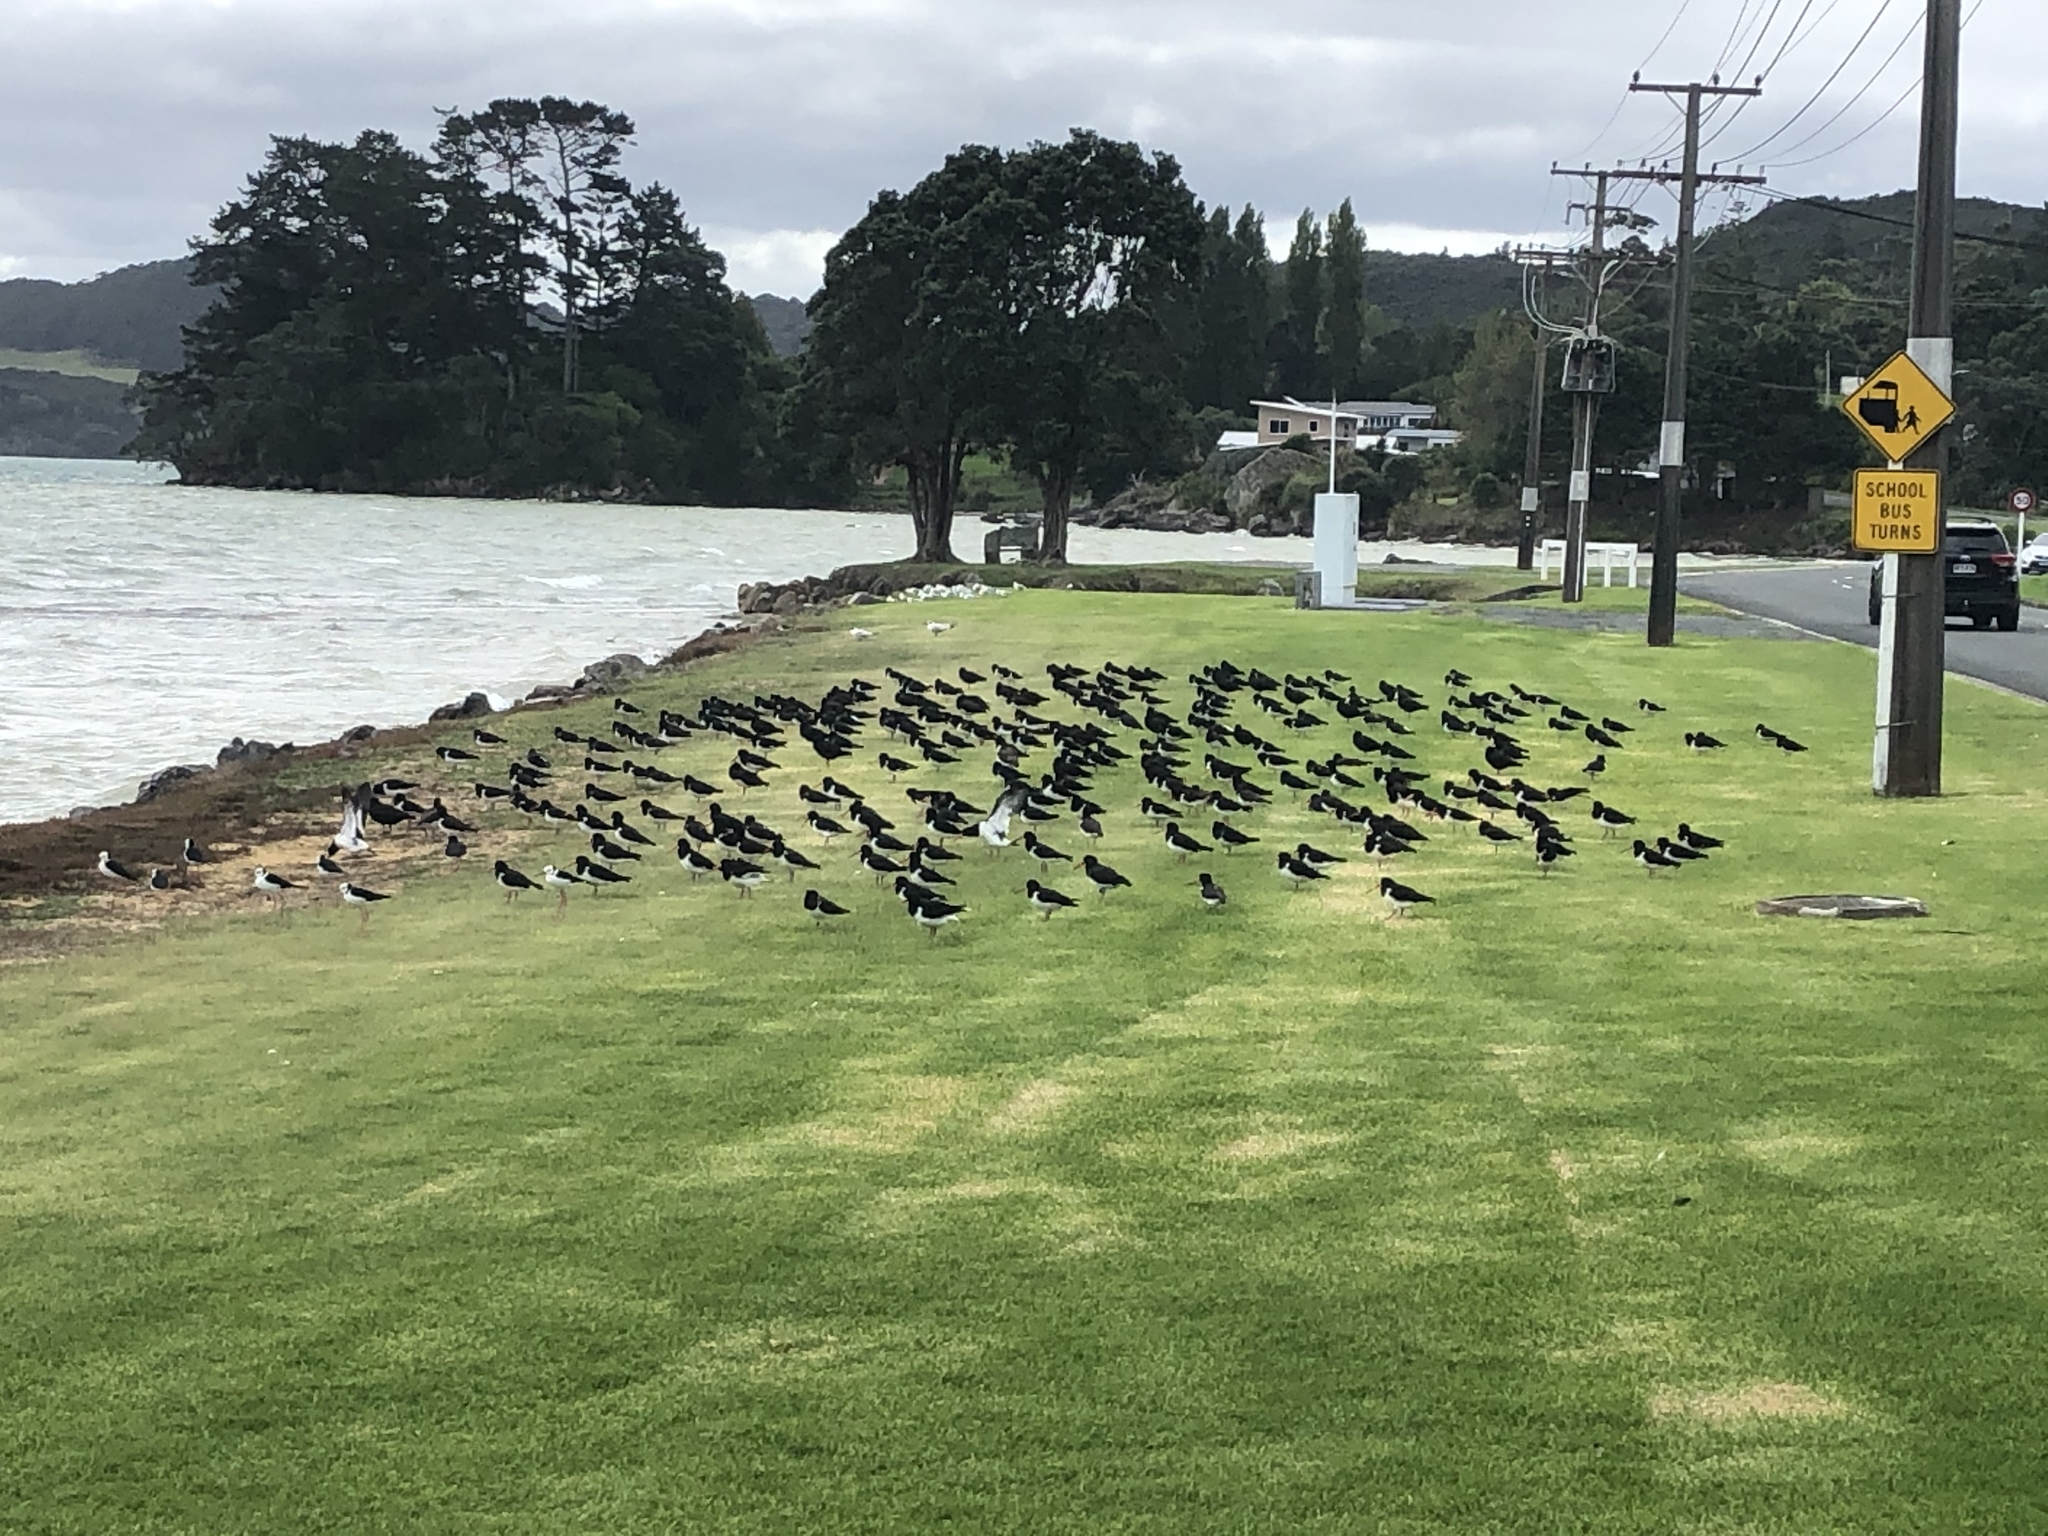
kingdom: Animalia
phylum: Chordata
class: Aves
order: Charadriiformes
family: Haematopodidae
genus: Haematopus
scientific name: Haematopus finschi
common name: South island oystercatcher
